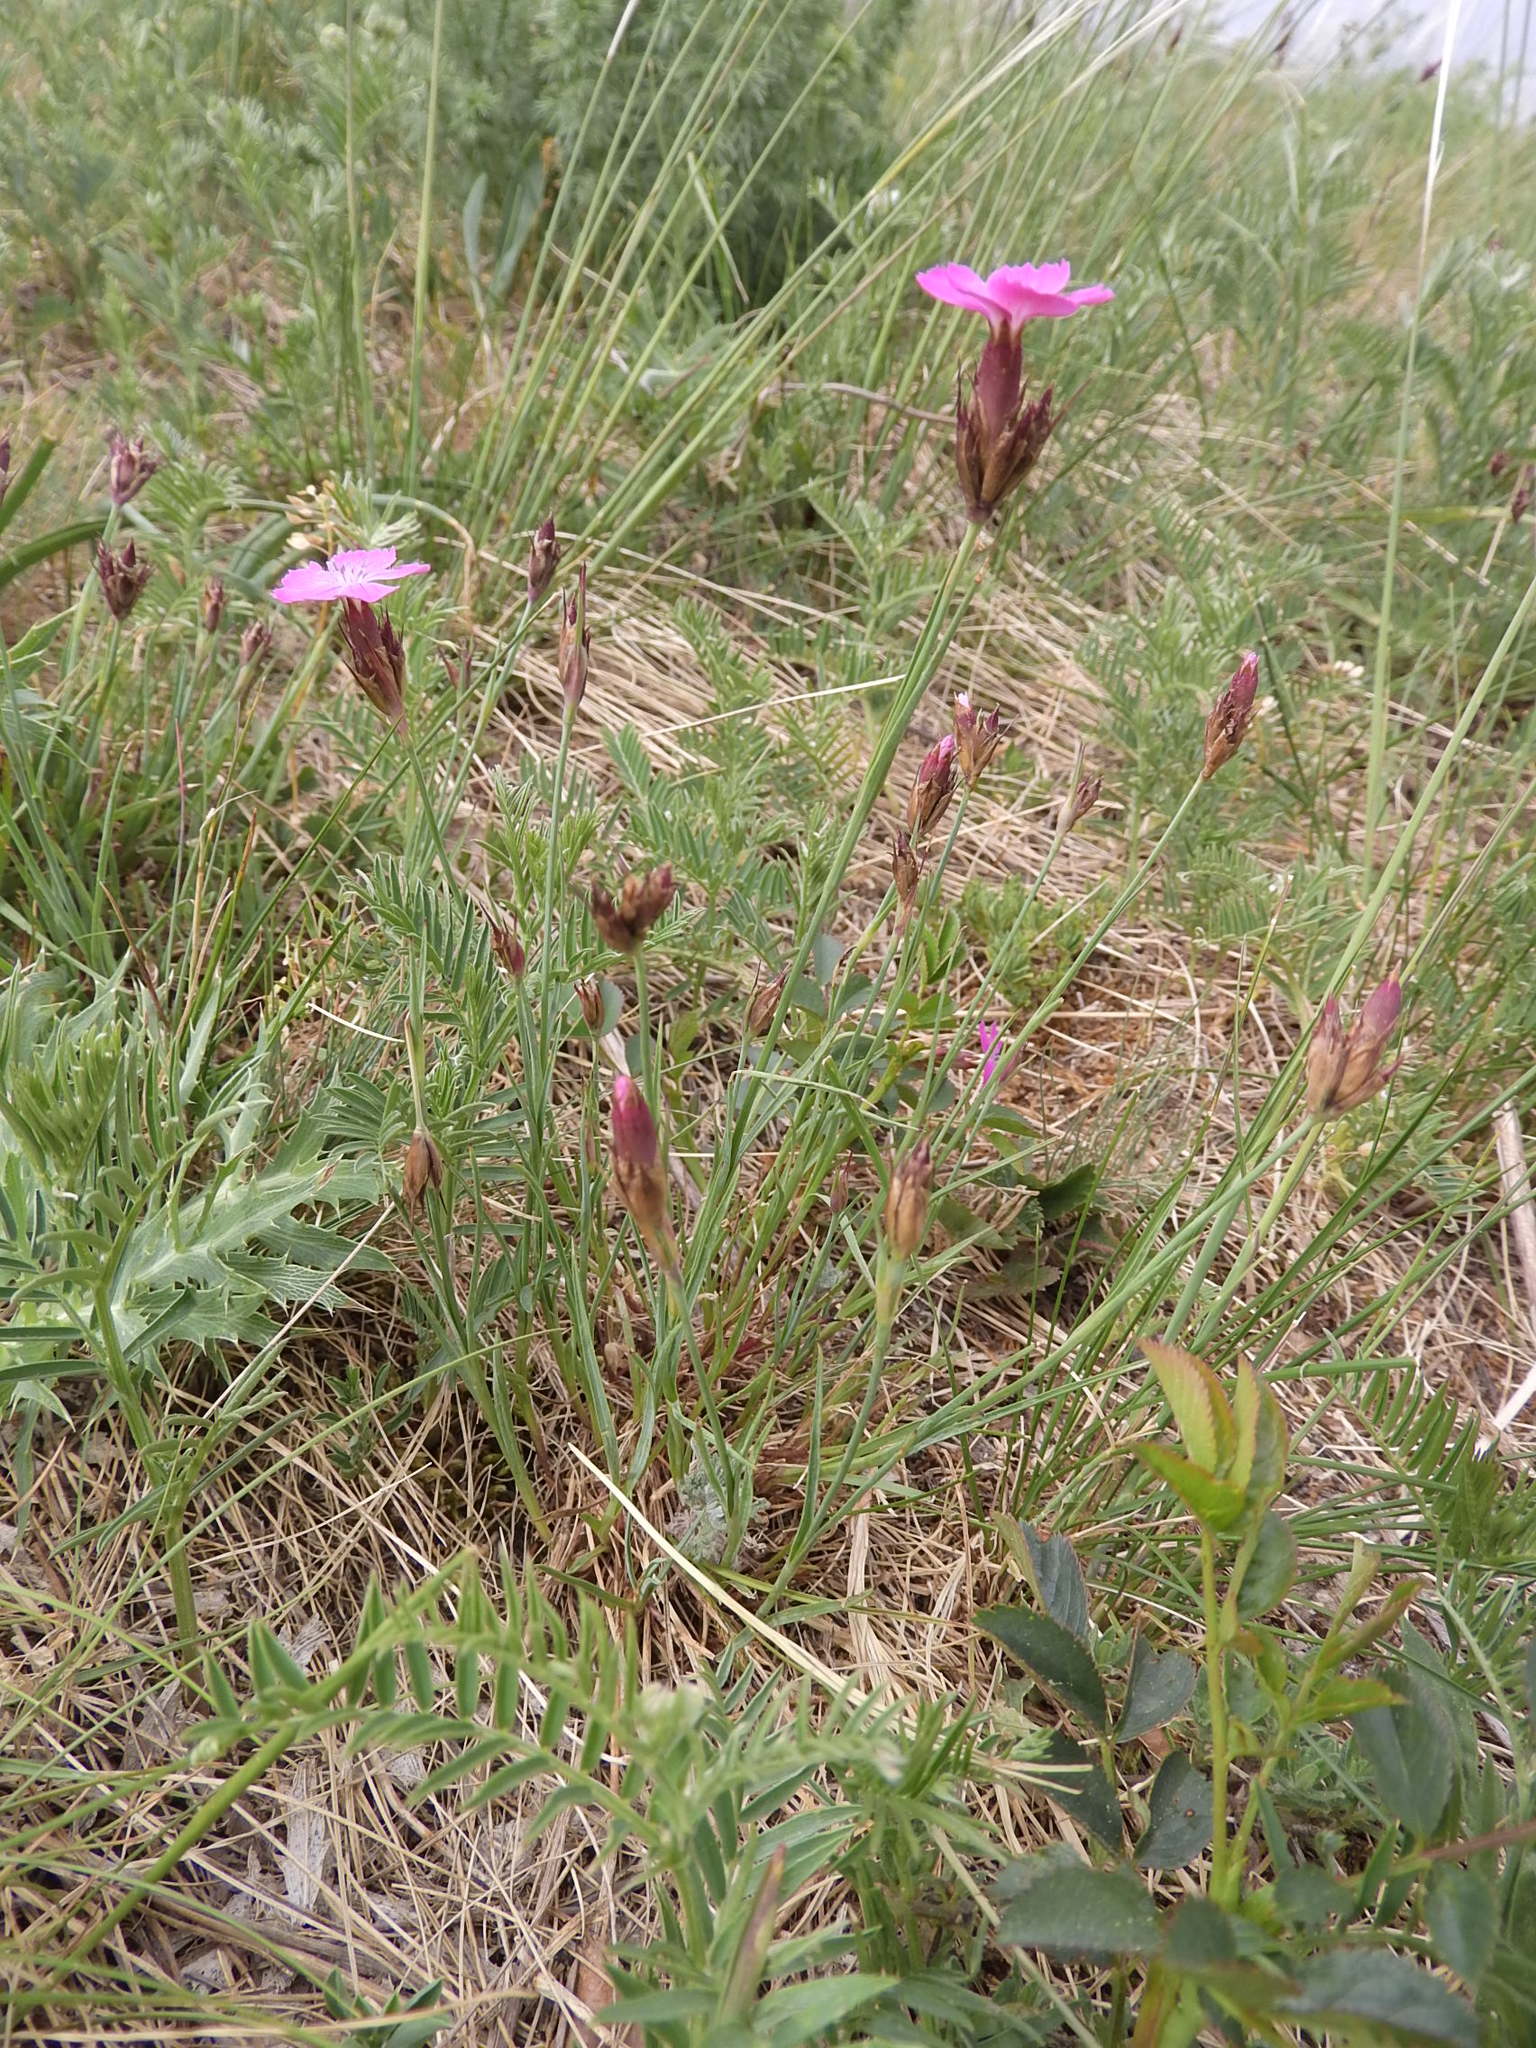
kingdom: Plantae
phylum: Tracheophyta
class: Magnoliopsida
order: Caryophyllales
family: Caryophyllaceae
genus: Dianthus
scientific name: Dianthus carthusianorum
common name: Carthusian pink
